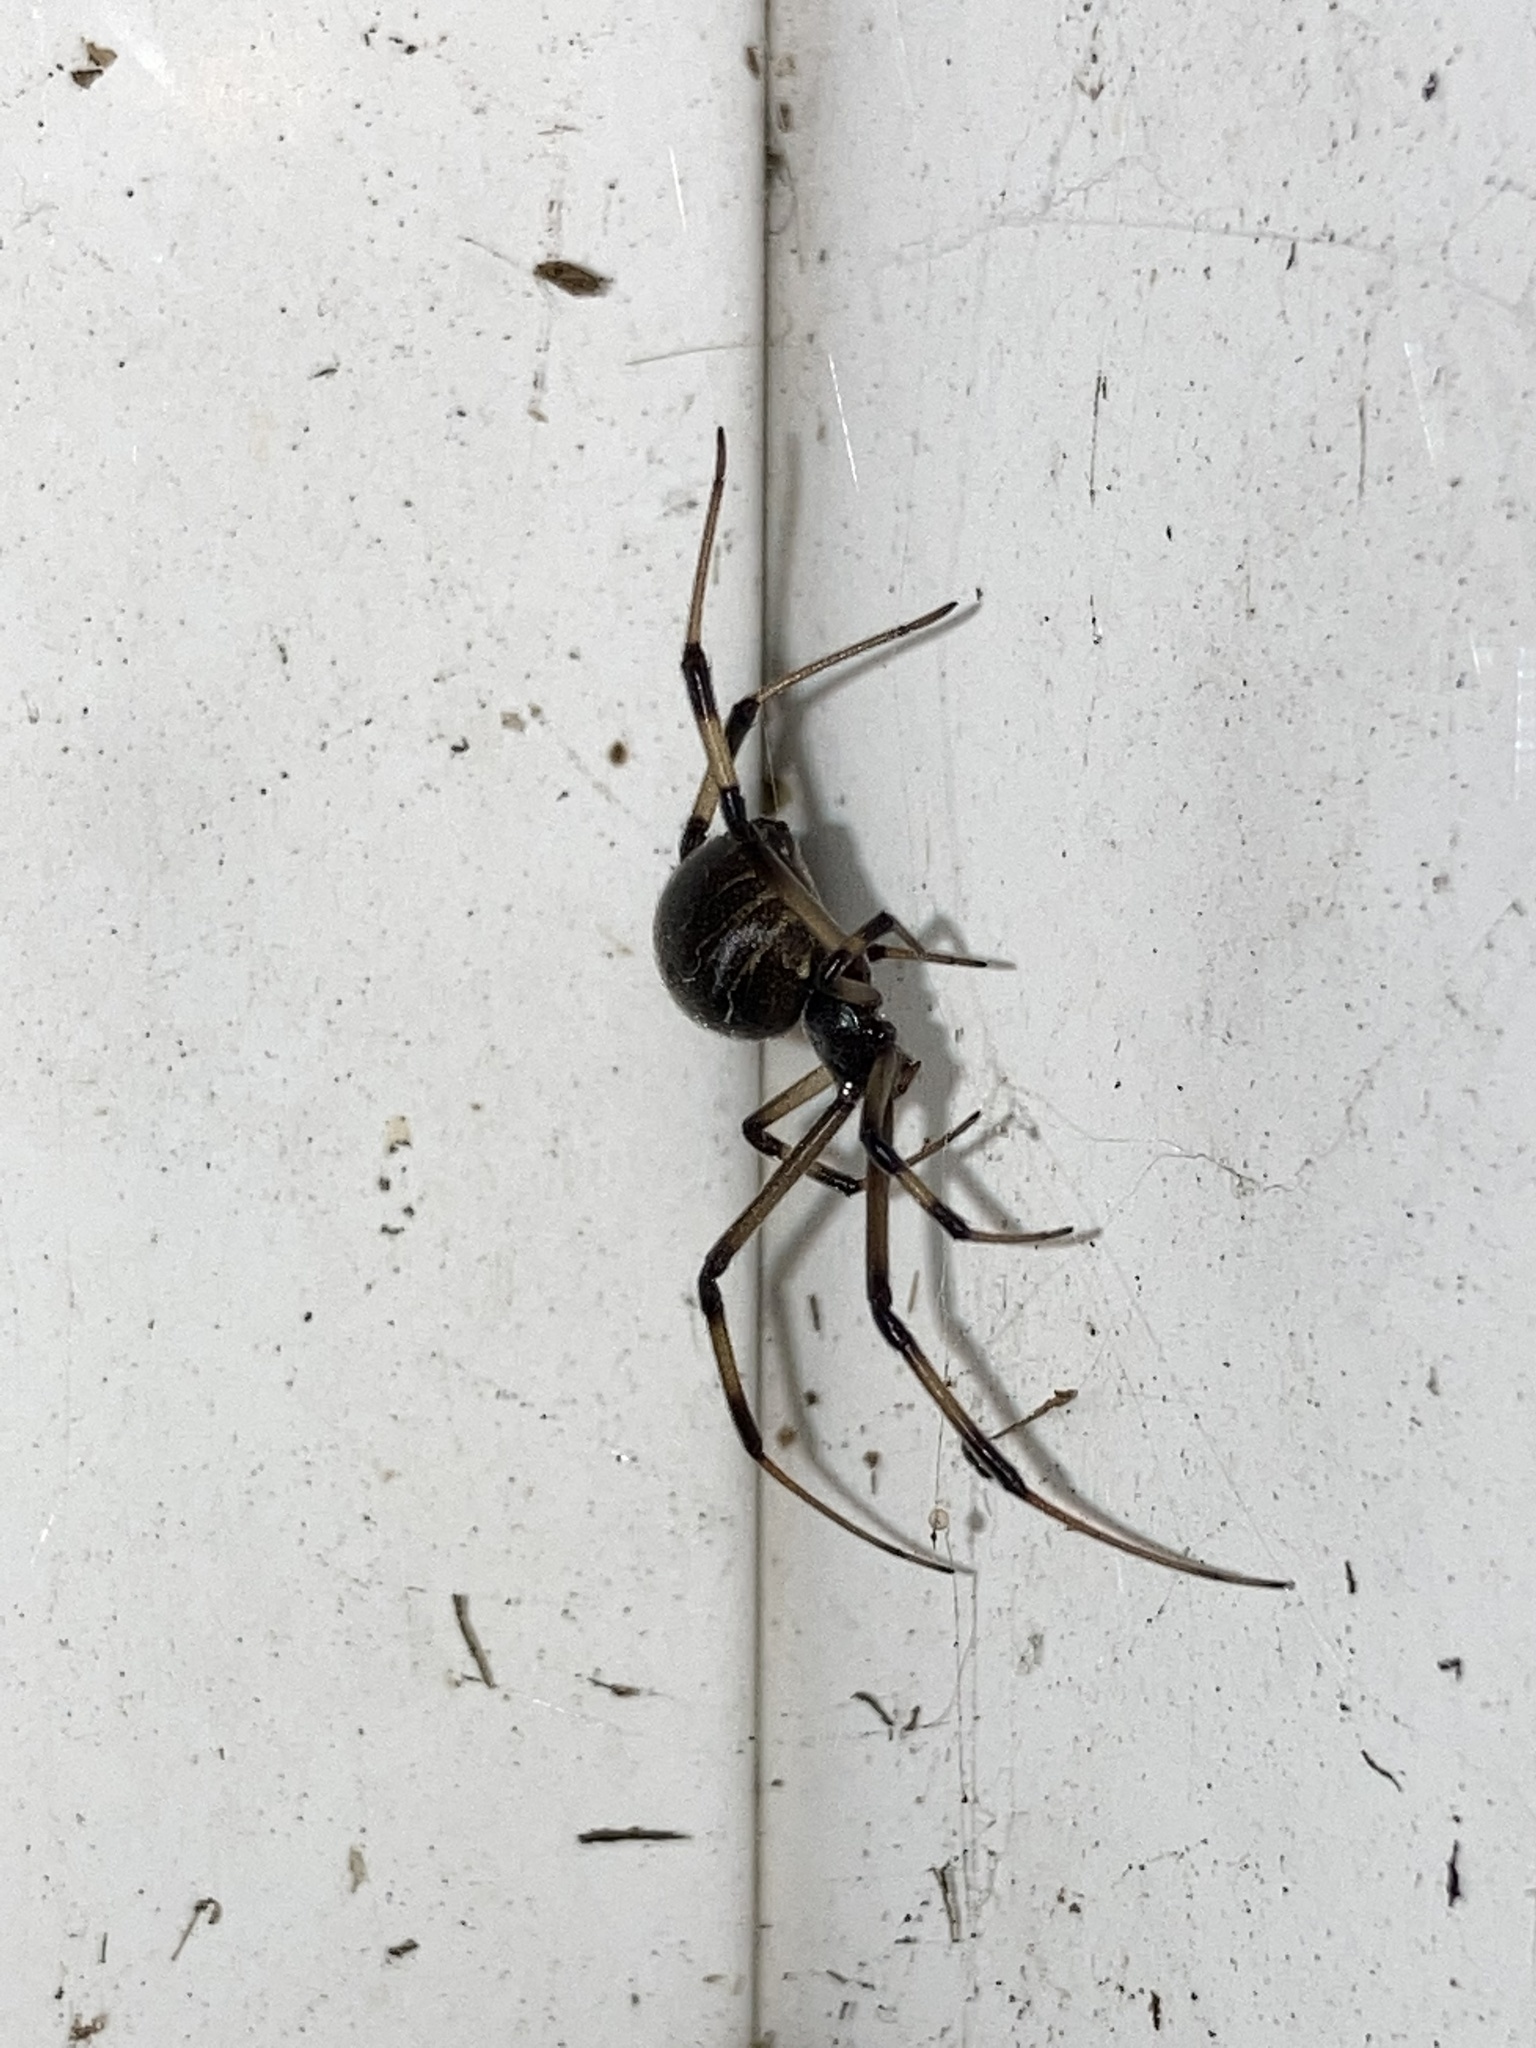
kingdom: Animalia
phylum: Arthropoda
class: Arachnida
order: Araneae
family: Theridiidae
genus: Latrodectus
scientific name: Latrodectus geometricus
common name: Brown widow spider
